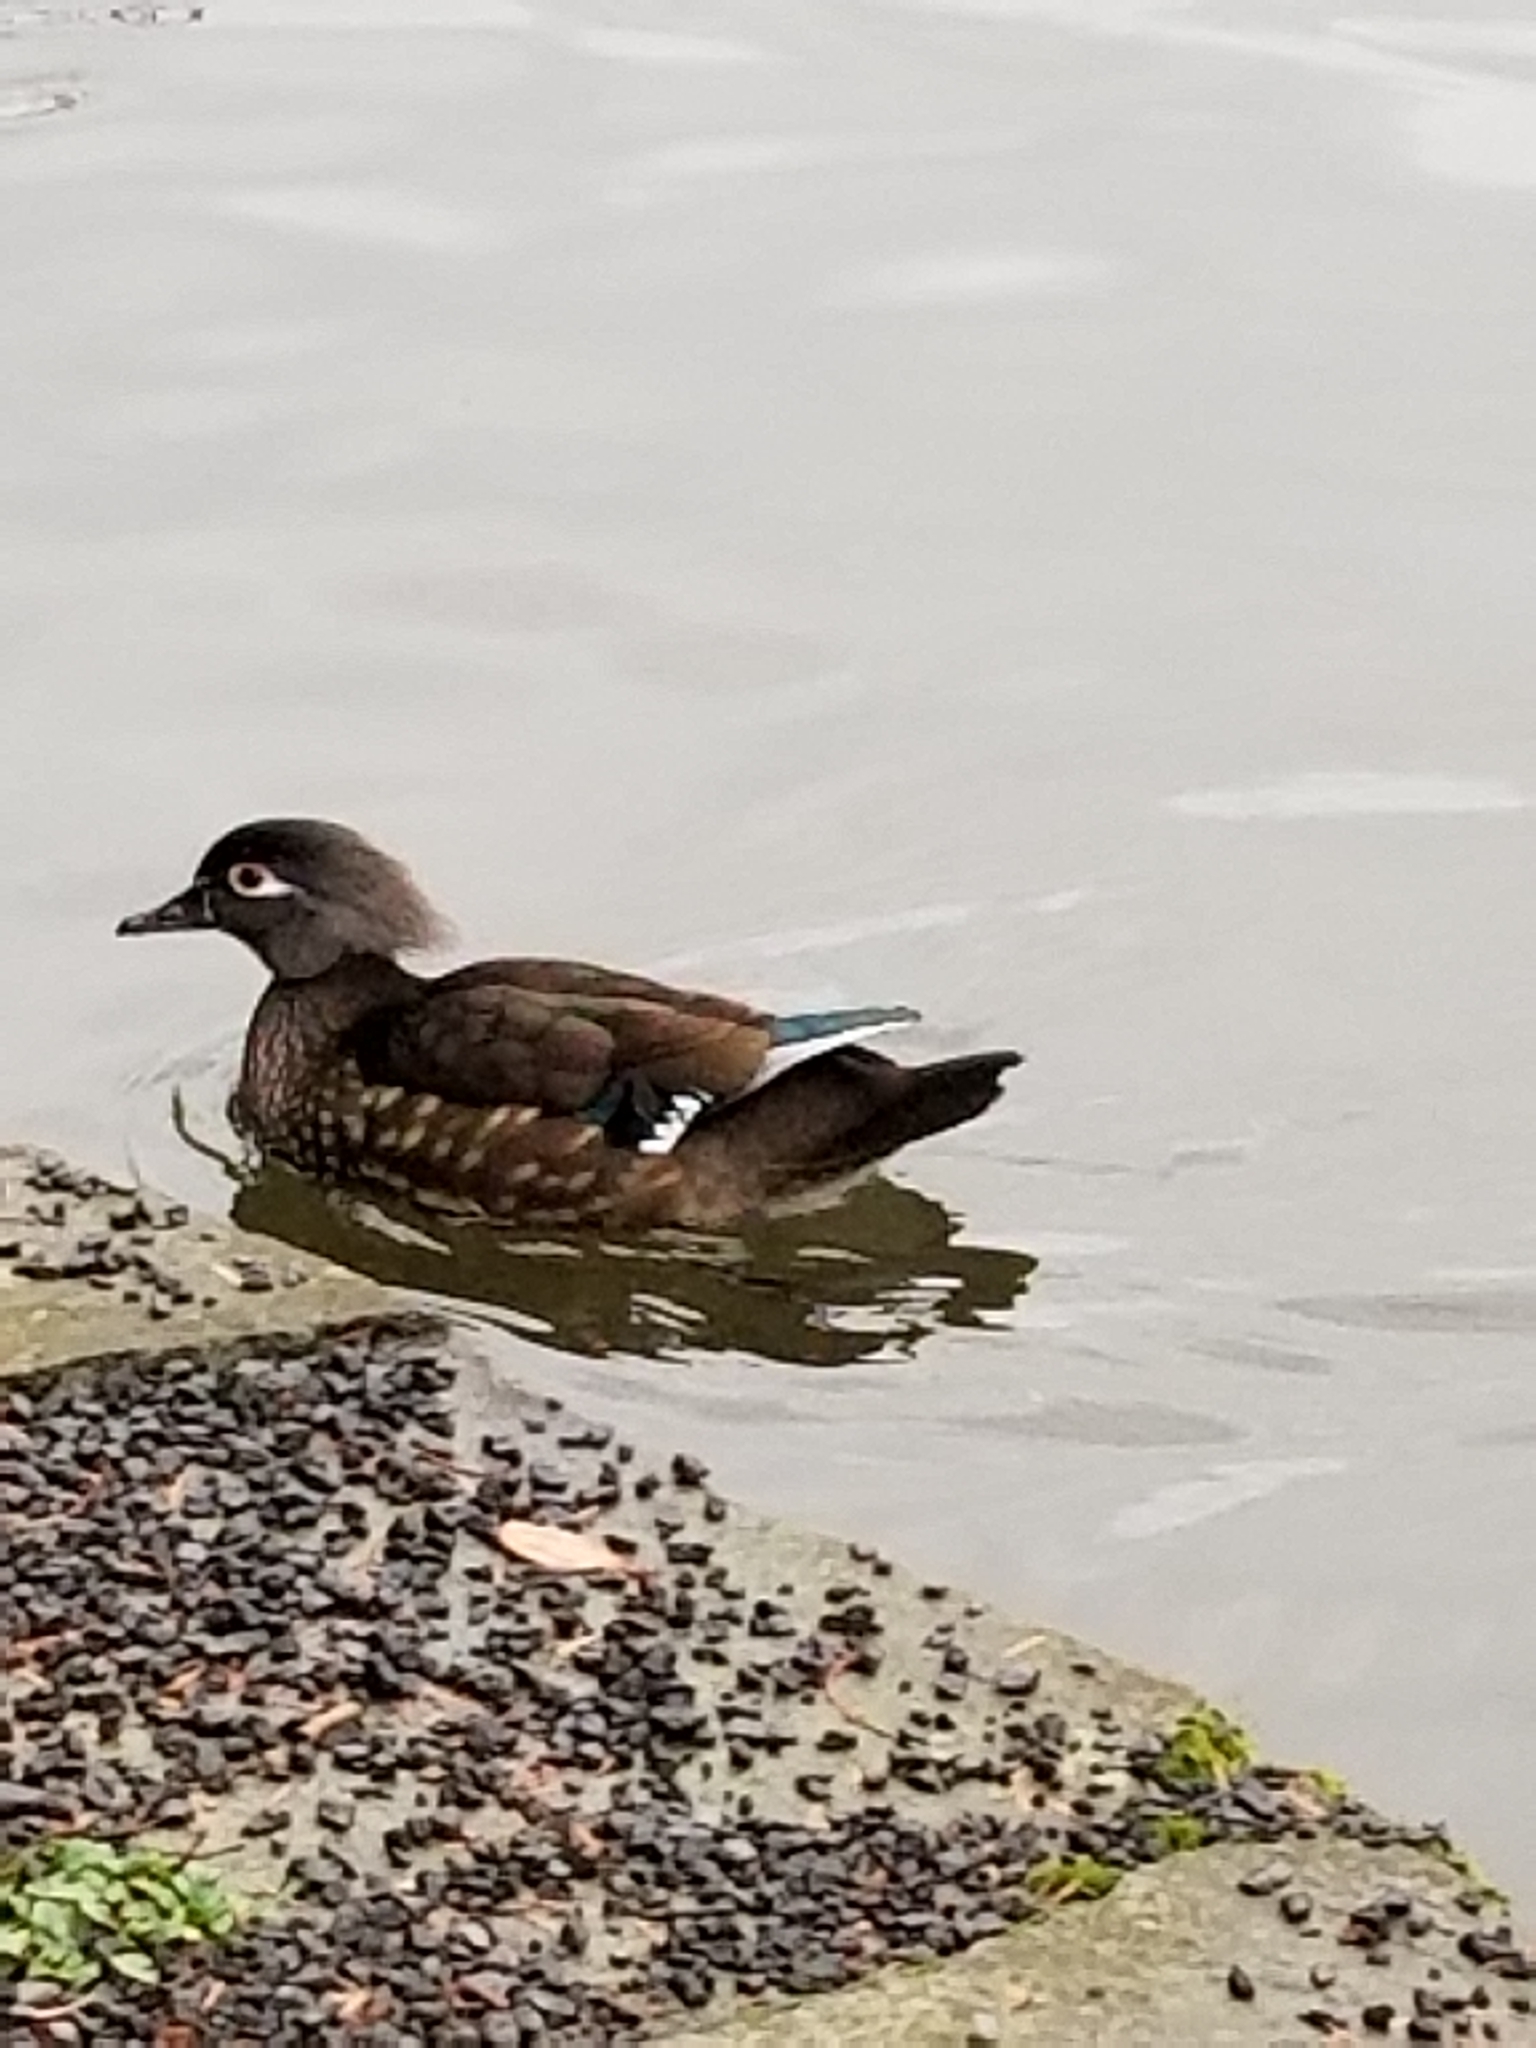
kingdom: Animalia
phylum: Chordata
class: Aves
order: Anseriformes
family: Anatidae
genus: Aix
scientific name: Aix sponsa
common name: Wood duck
